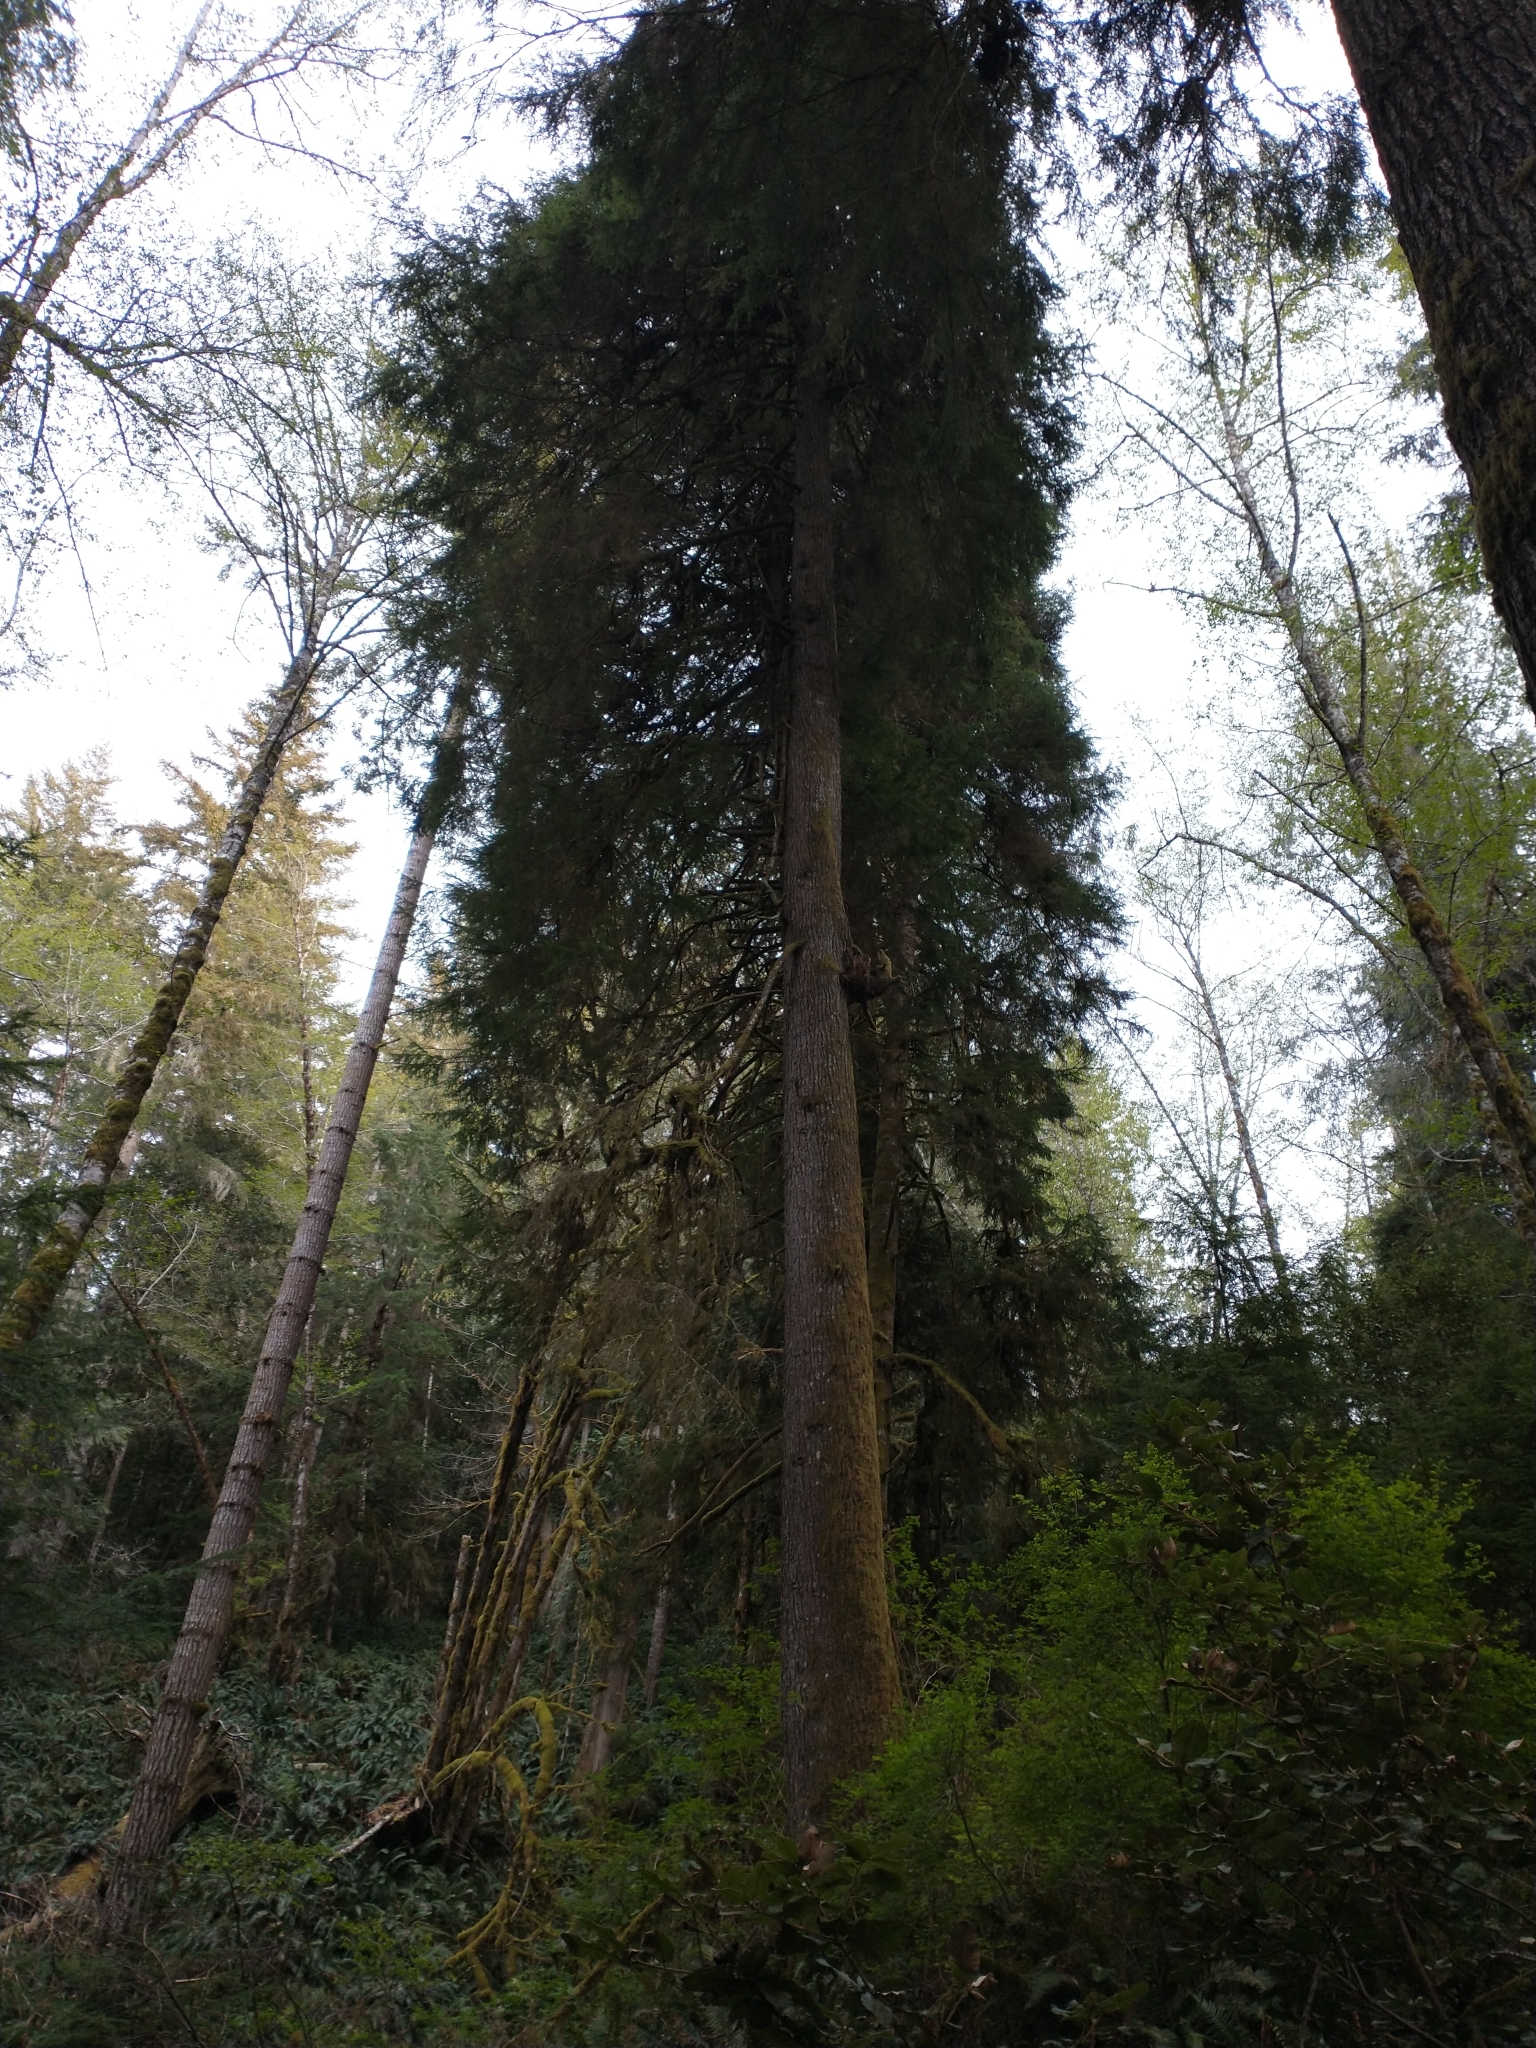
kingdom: Plantae
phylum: Tracheophyta
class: Pinopsida
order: Pinales
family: Pinaceae
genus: Tsuga
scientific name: Tsuga heterophylla
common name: Western hemlock
